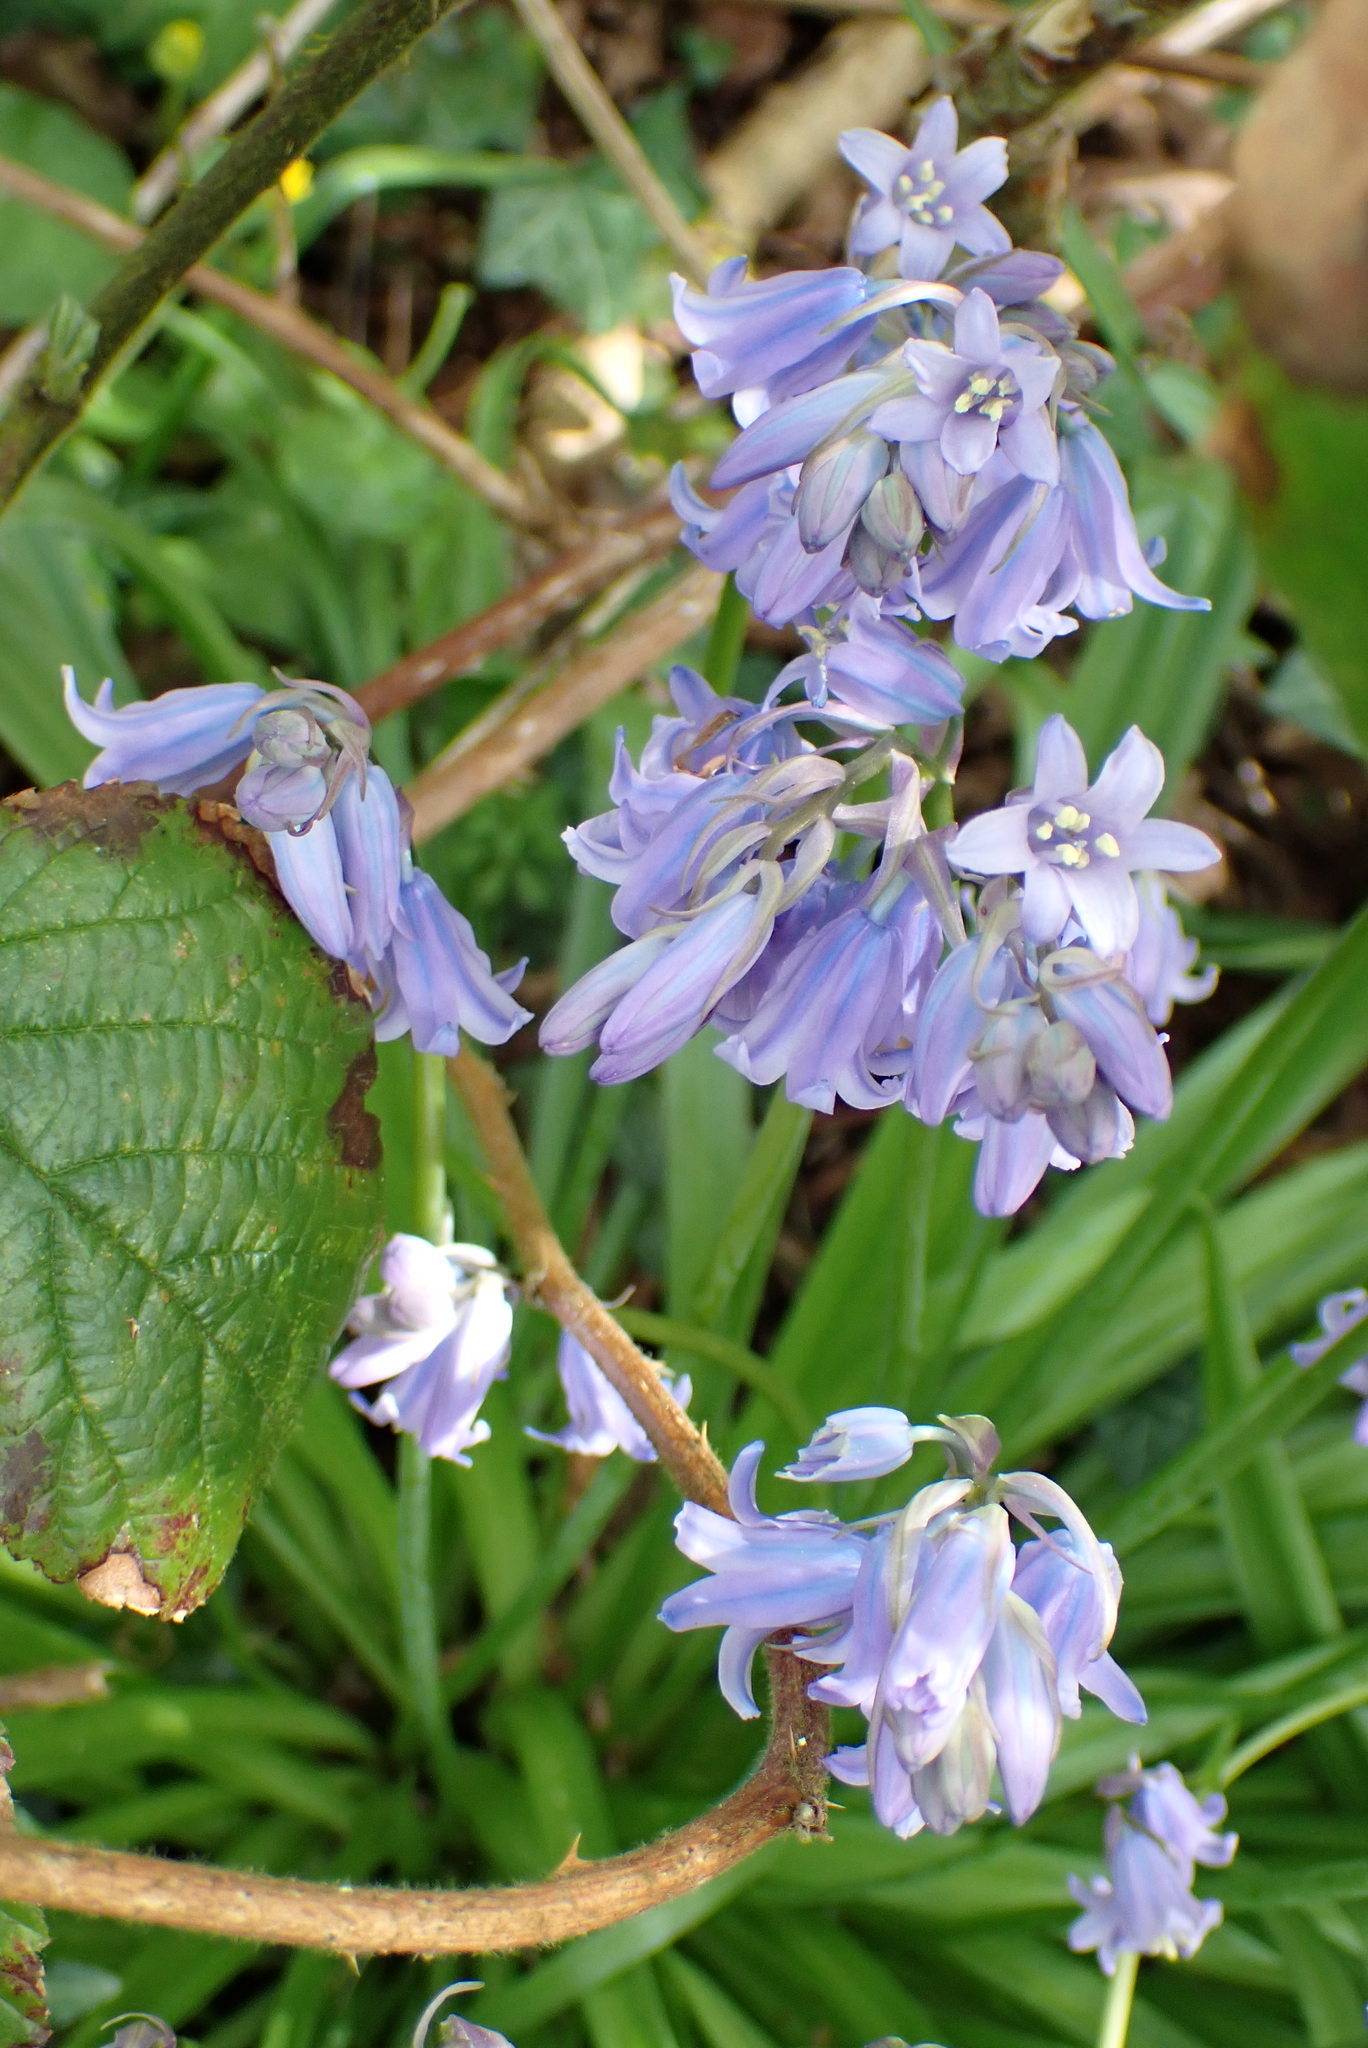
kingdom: Plantae
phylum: Tracheophyta
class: Liliopsida
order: Asparagales
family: Asparagaceae
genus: Hyacinthoides
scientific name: Hyacinthoides massartiana
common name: Hyacinthoides
